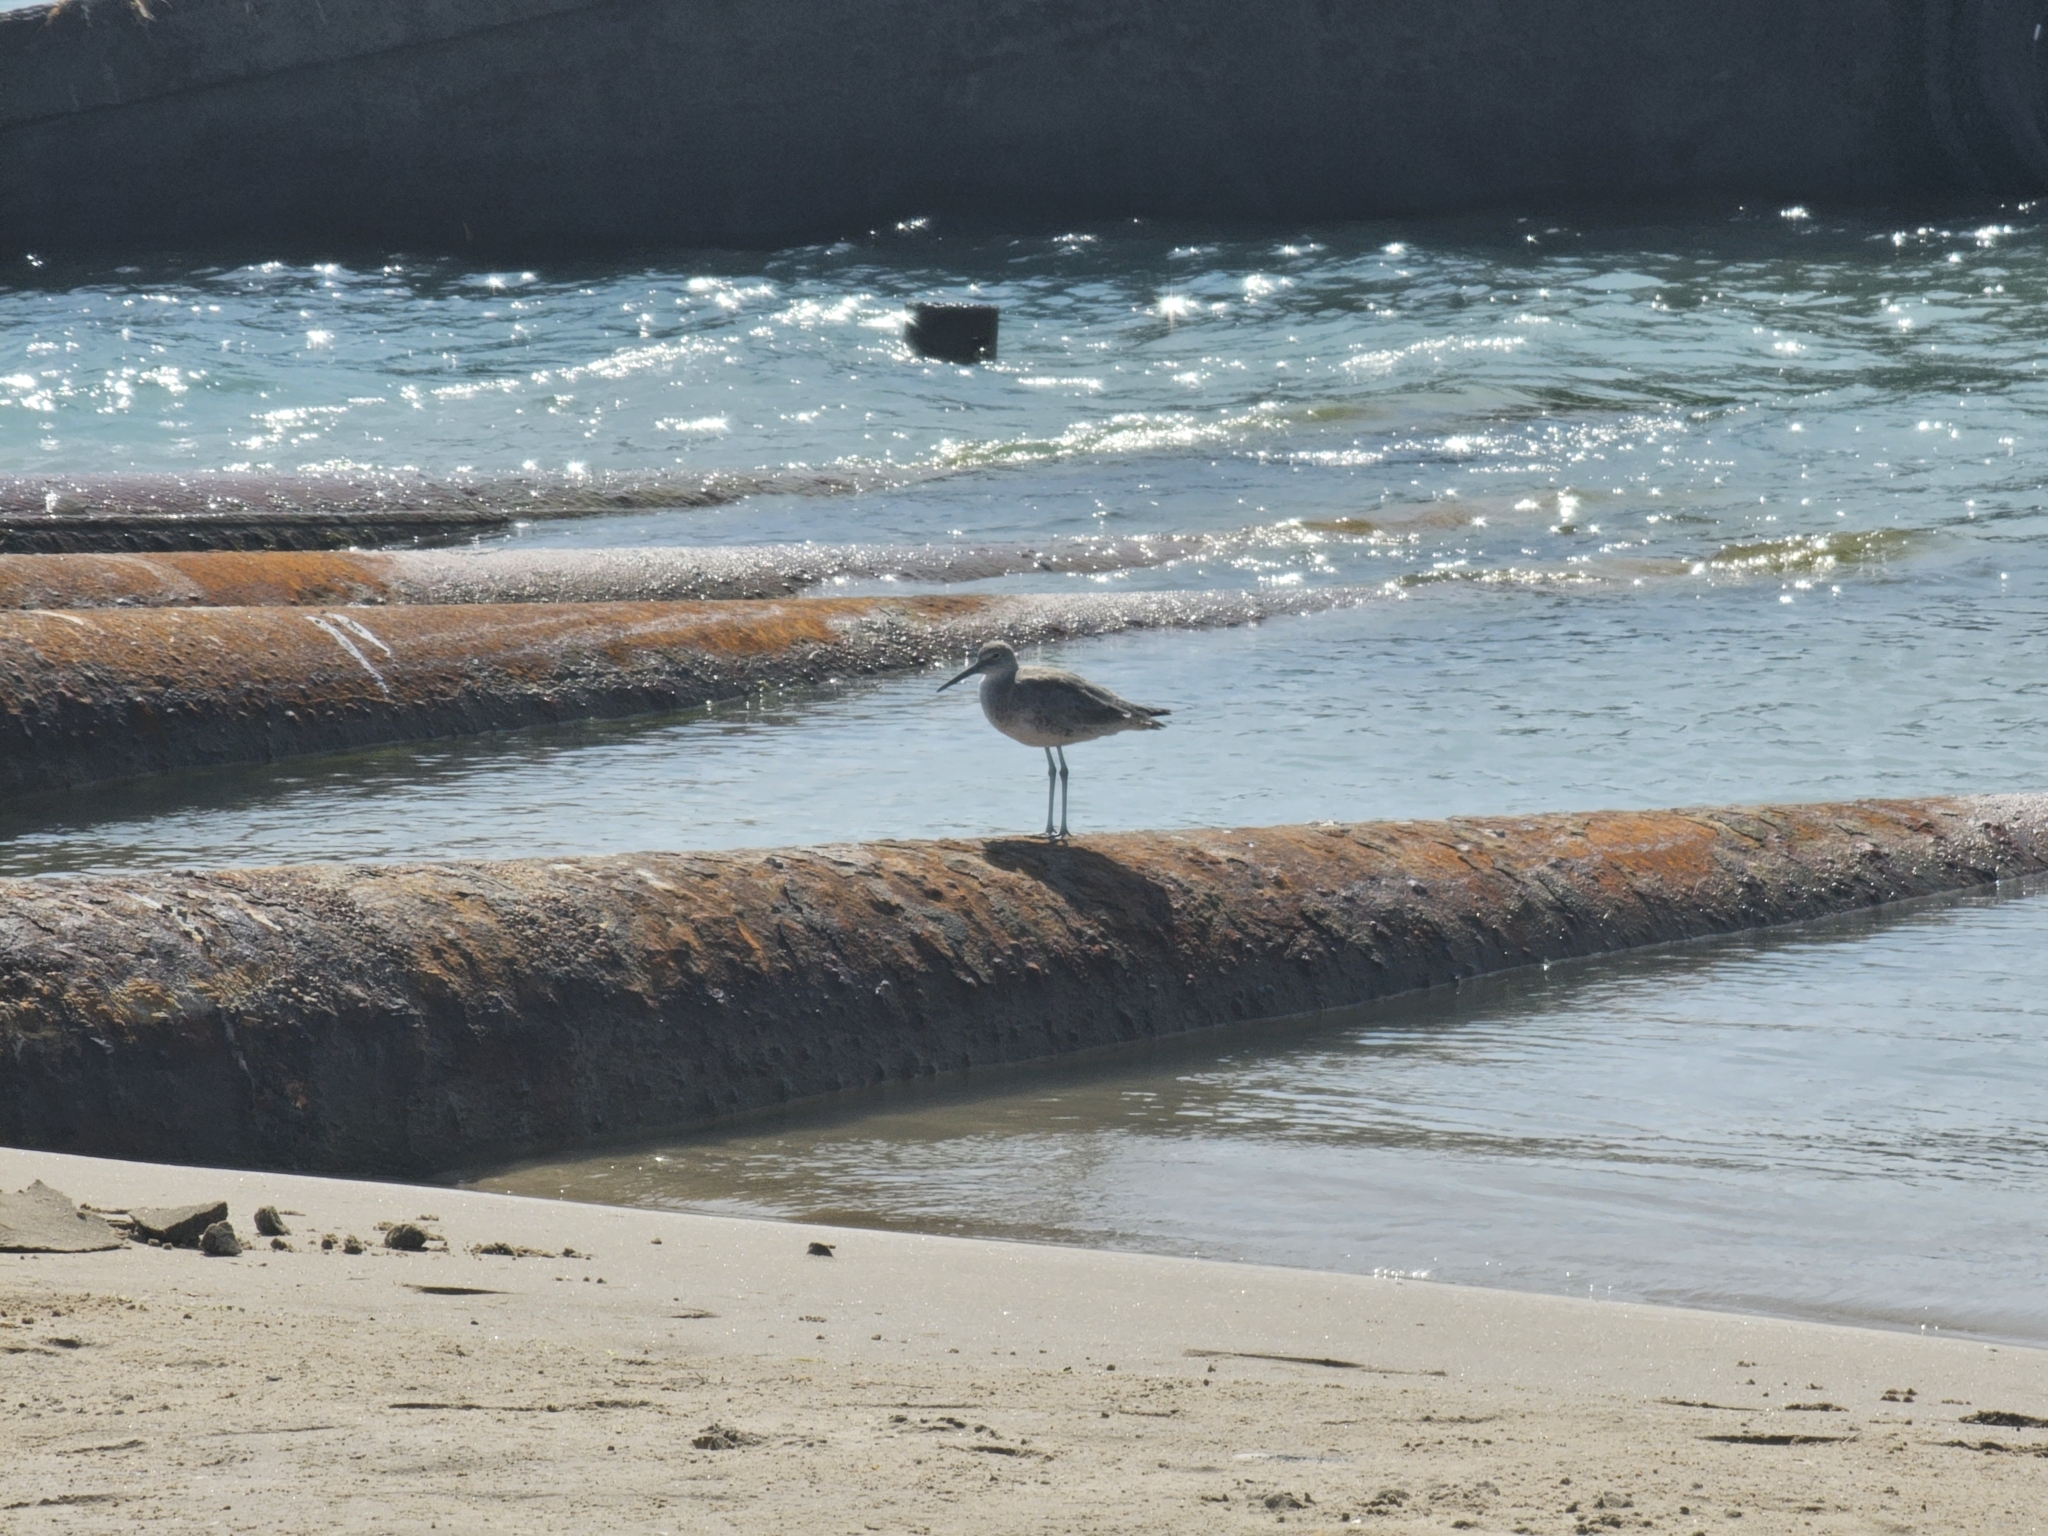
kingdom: Animalia
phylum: Chordata
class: Aves
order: Charadriiformes
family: Scolopacidae
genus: Tringa
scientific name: Tringa semipalmata
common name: Willet
